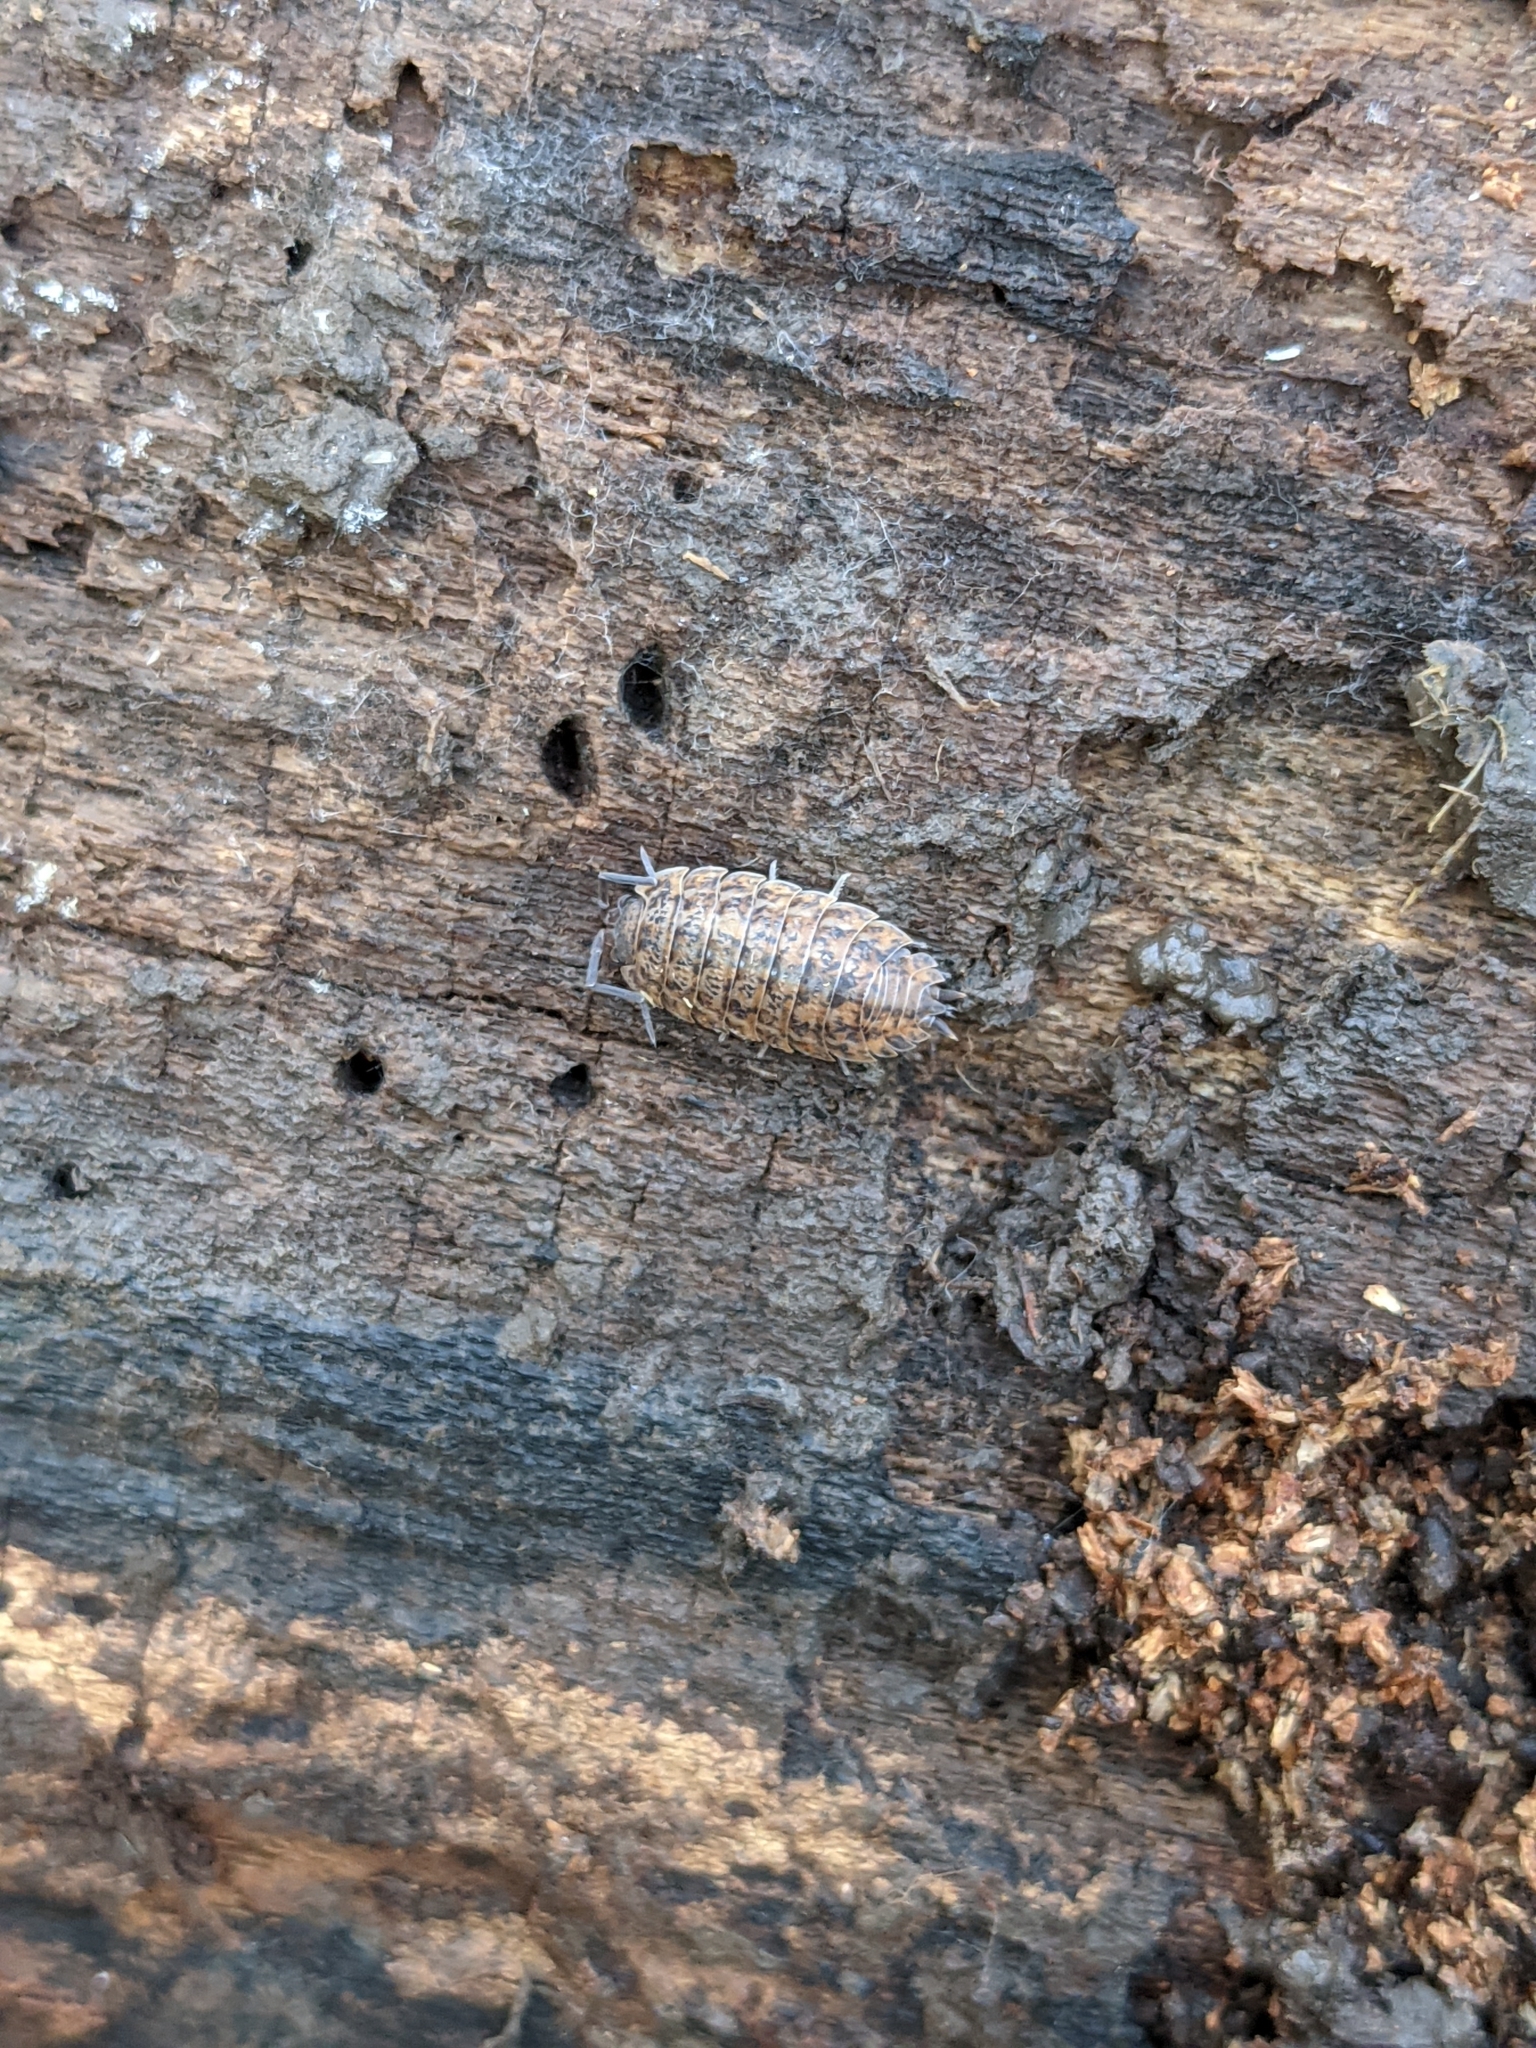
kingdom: Animalia
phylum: Arthropoda
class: Malacostraca
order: Isopoda
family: Trachelipodidae
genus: Trachelipus
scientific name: Trachelipus rathkii
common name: Isopod
